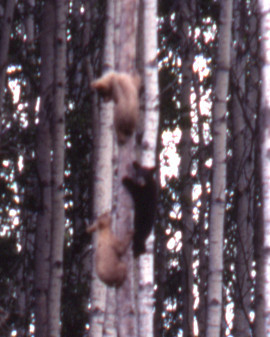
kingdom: Animalia
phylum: Chordata
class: Mammalia
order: Carnivora
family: Ursidae
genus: Ursus
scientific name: Ursus americanus
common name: American black bear
